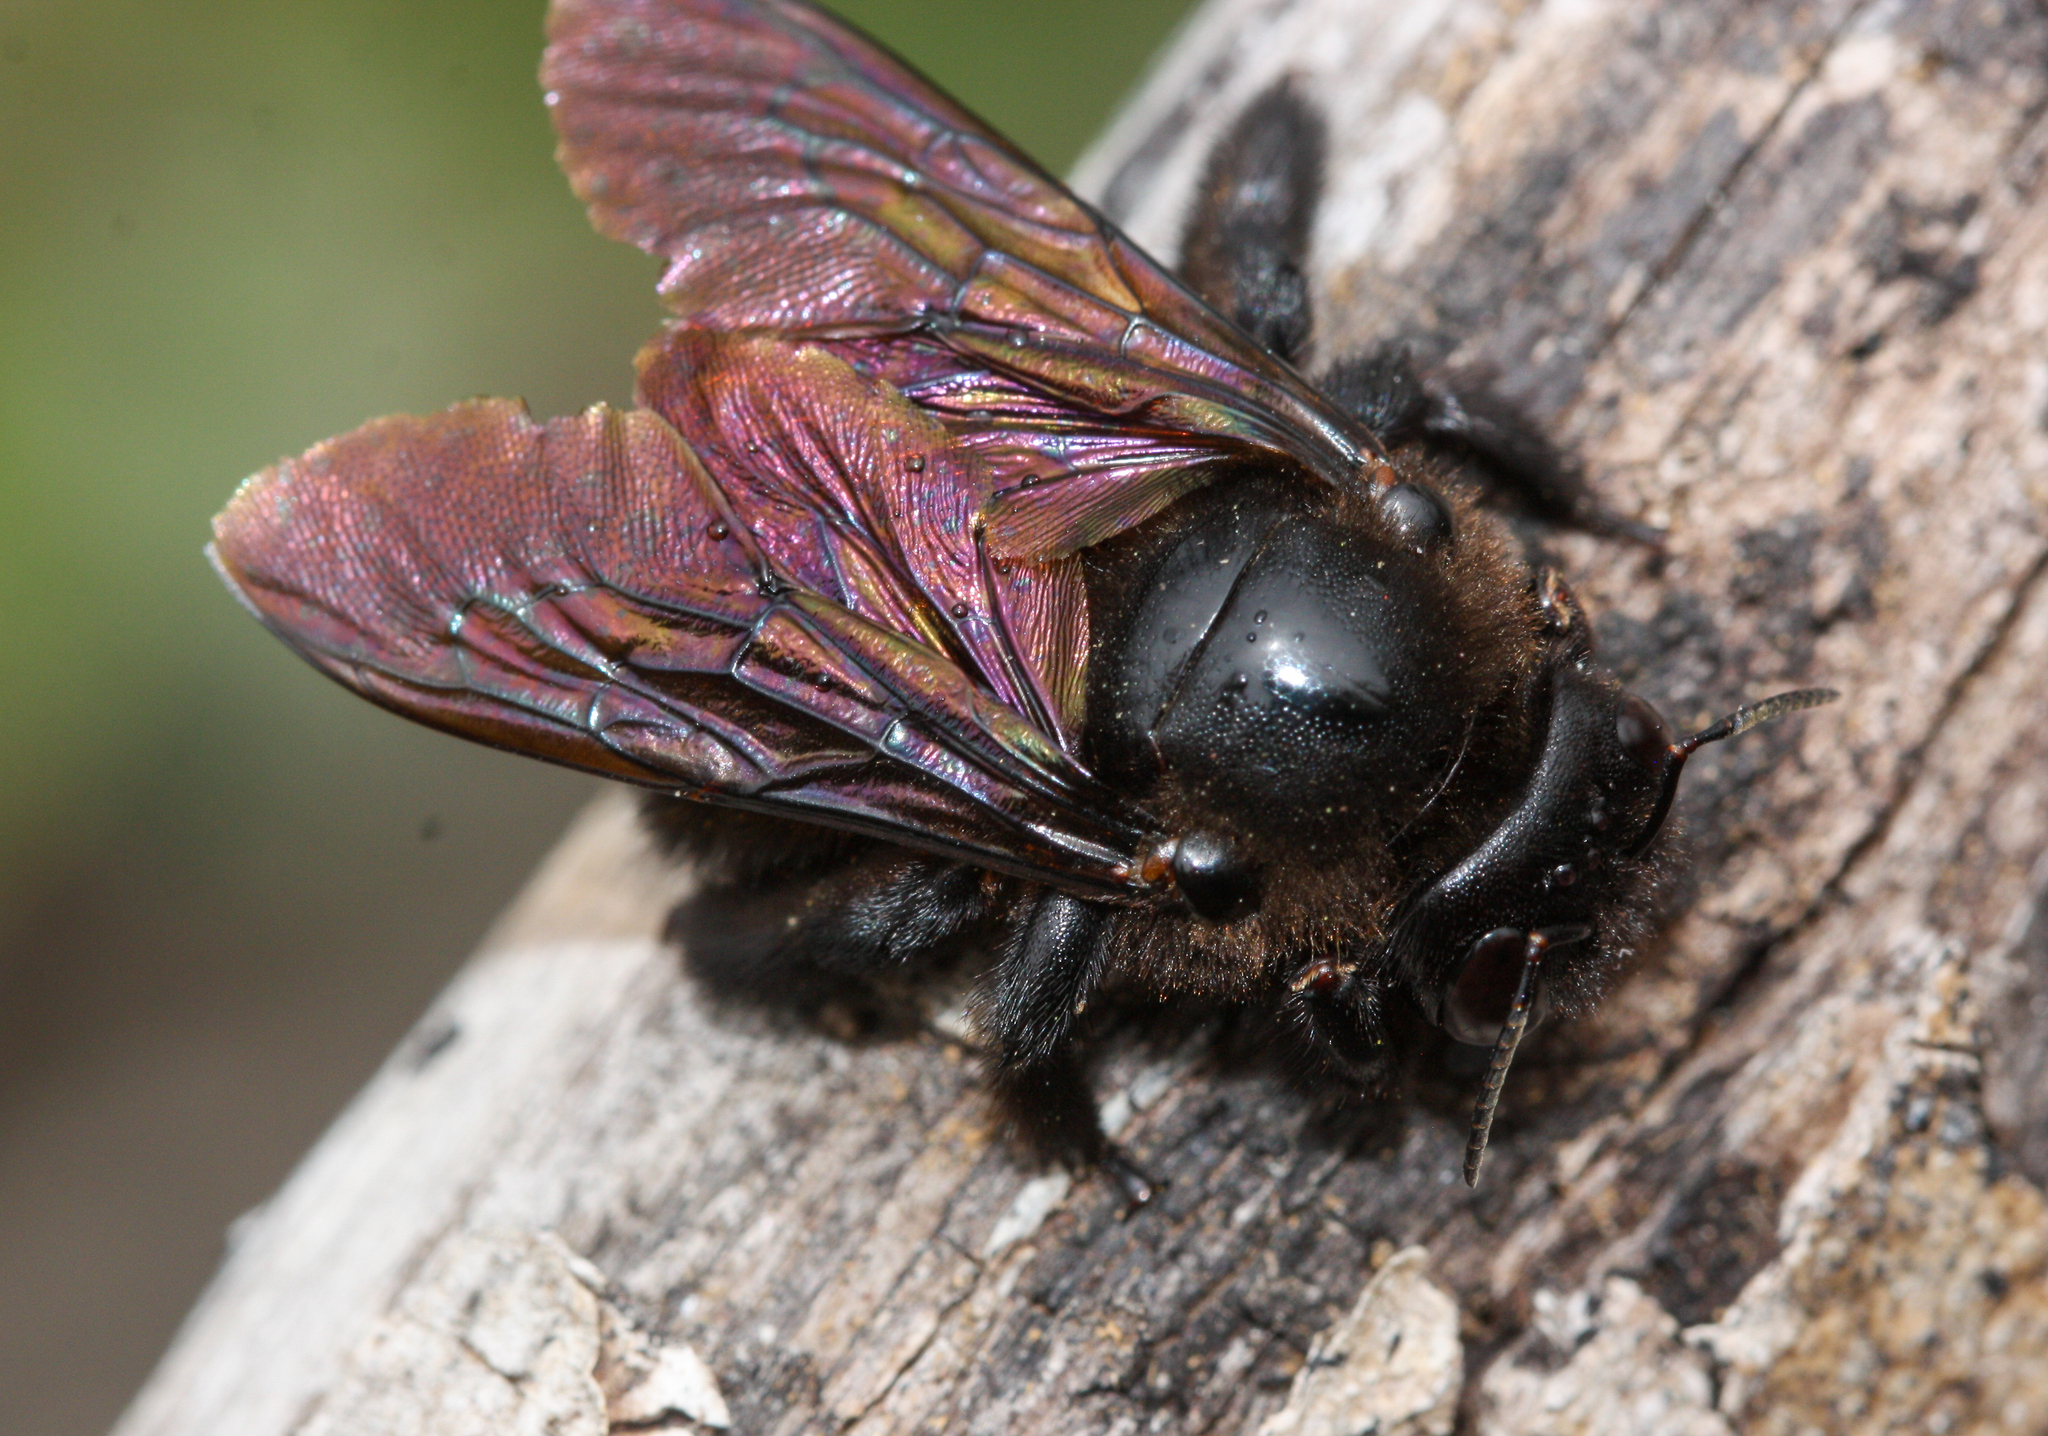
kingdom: Animalia
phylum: Arthropoda
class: Insecta
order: Hymenoptera
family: Apidae
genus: Xylocopa
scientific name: Xylocopa darwini
